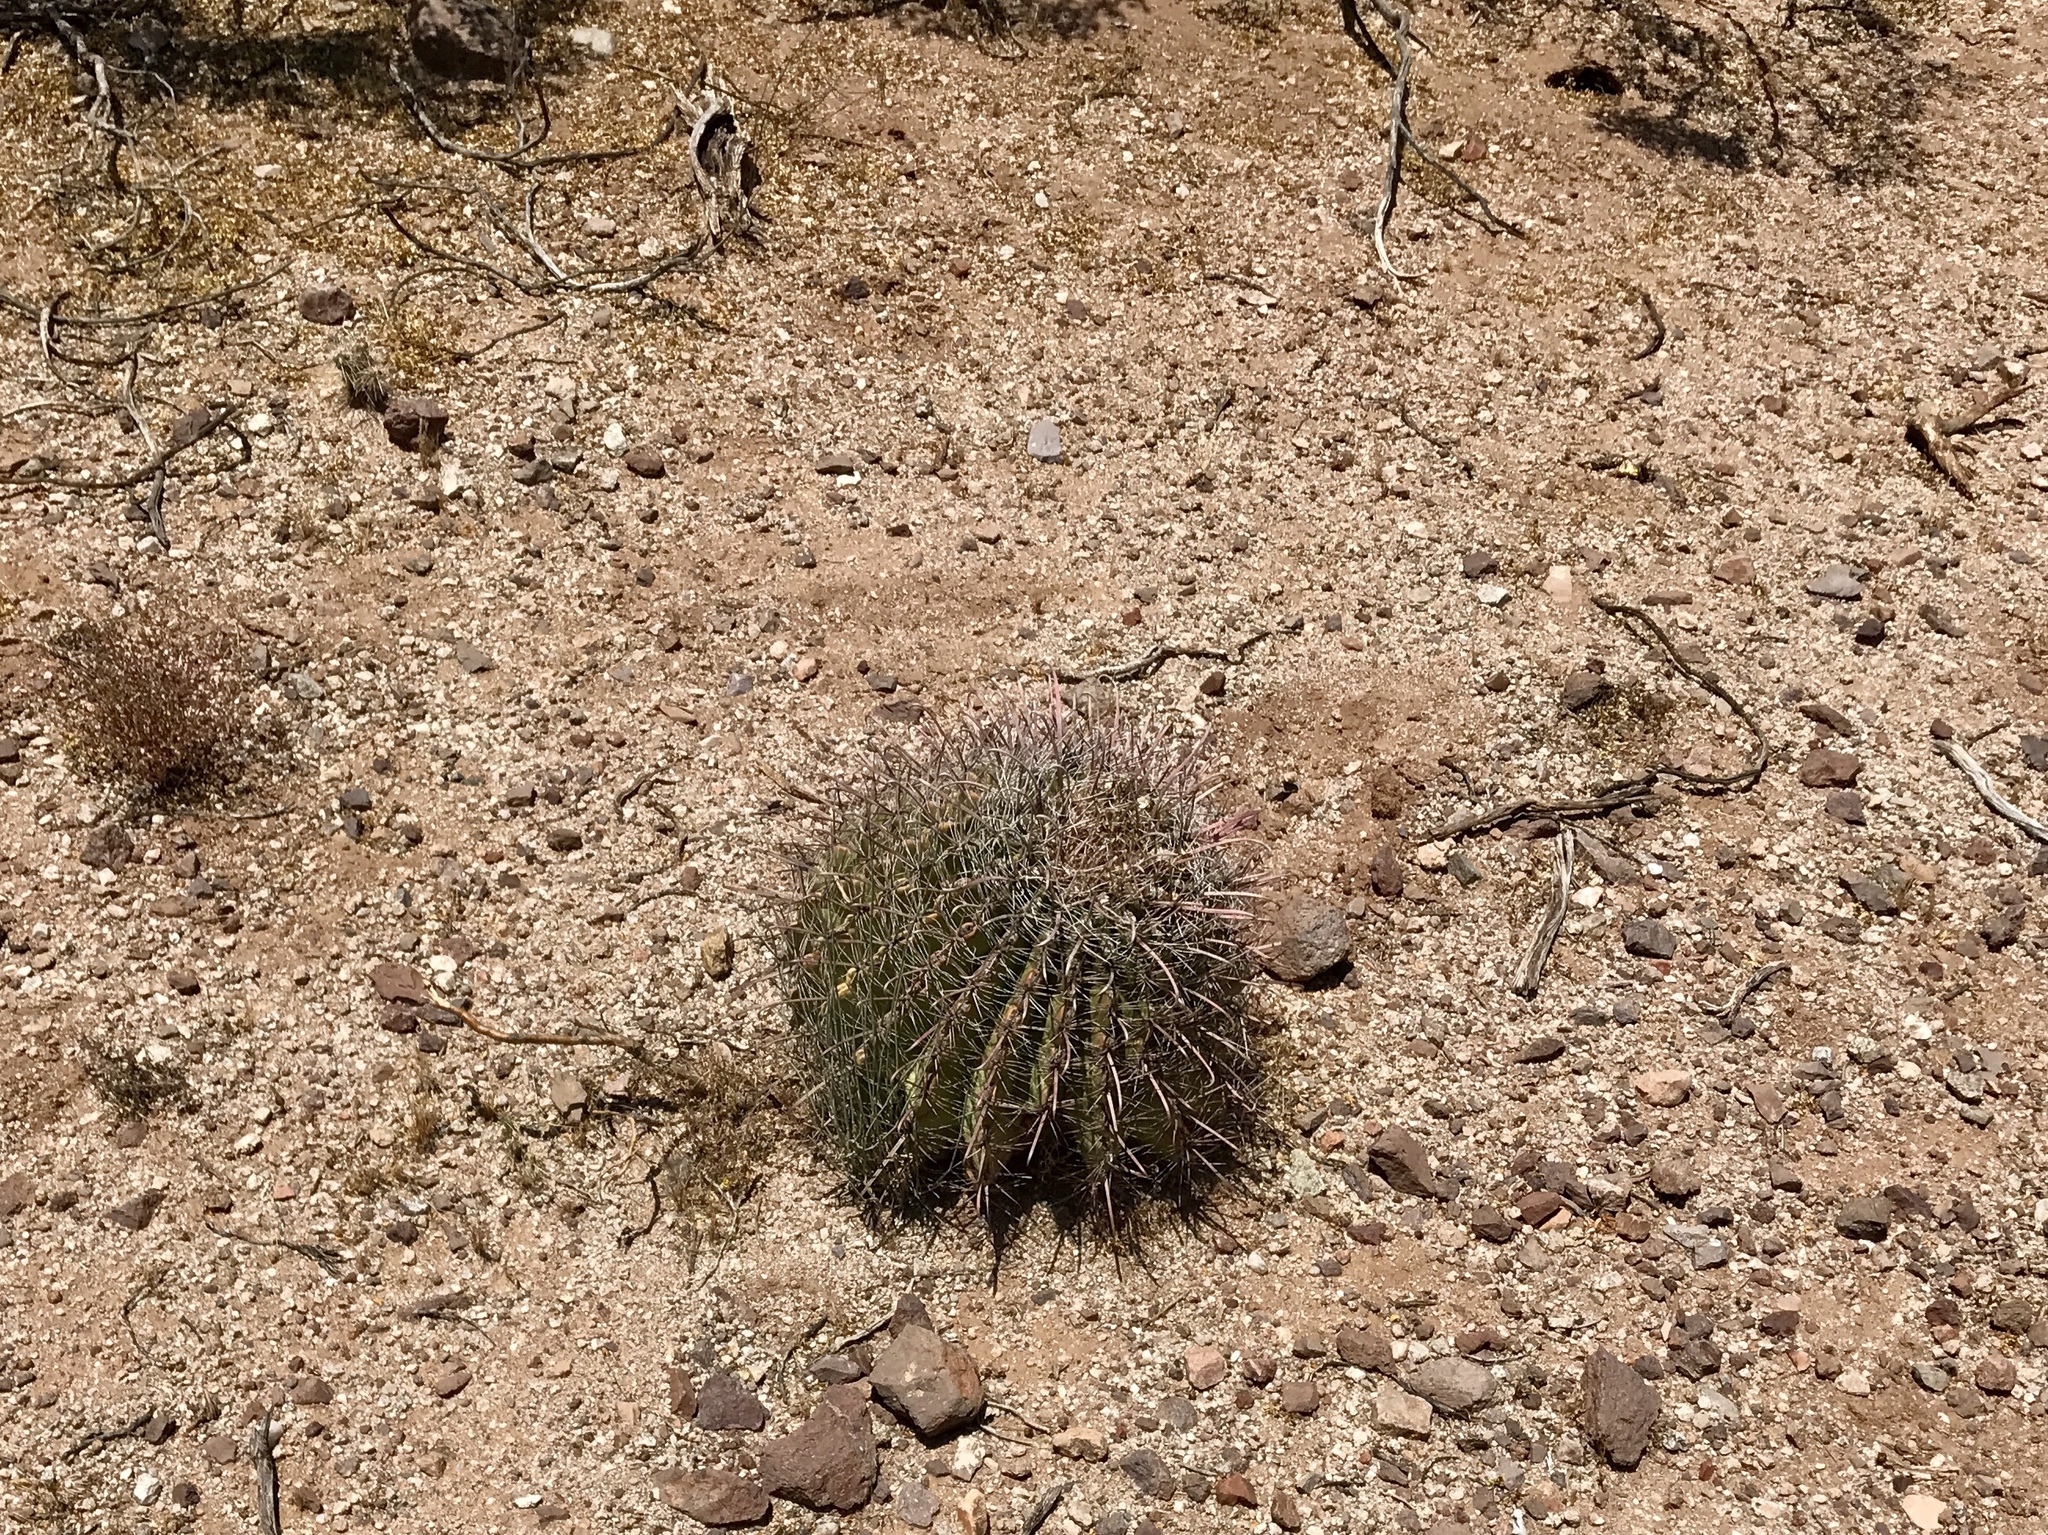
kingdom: Plantae
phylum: Tracheophyta
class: Magnoliopsida
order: Caryophyllales
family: Cactaceae
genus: Ferocactus
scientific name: Ferocactus wislizeni
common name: Candy barrel cactus
